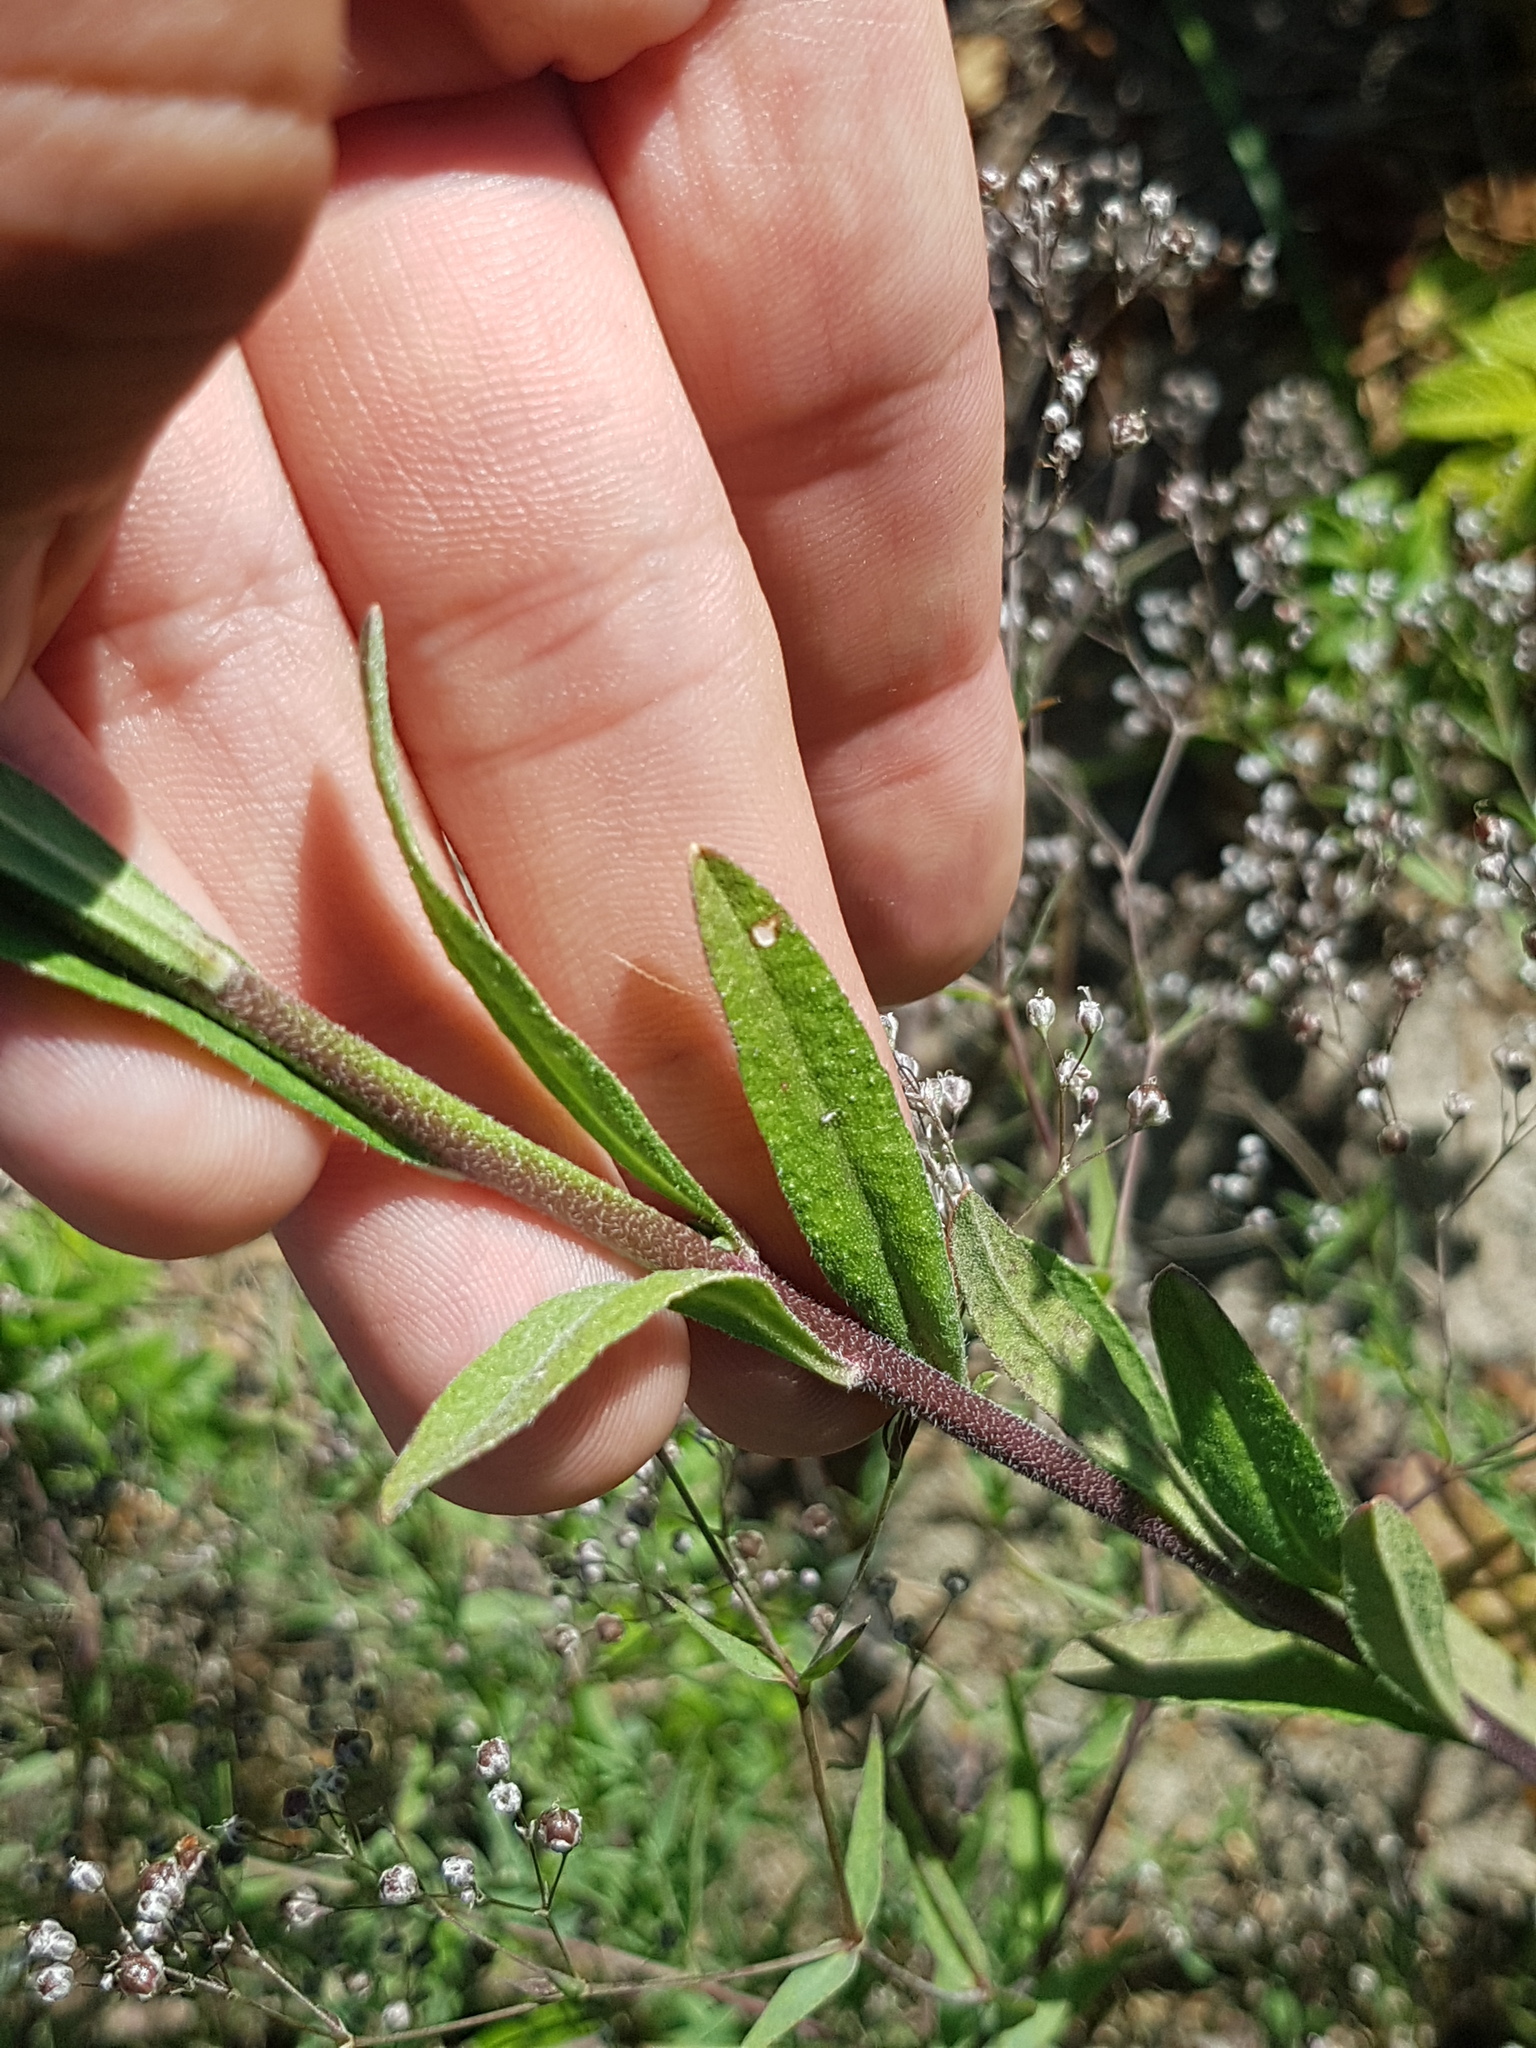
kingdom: Plantae
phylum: Tracheophyta
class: Magnoliopsida
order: Brassicales
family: Brassicaceae
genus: Berteroa
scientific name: Berteroa incana
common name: Hoary alison
